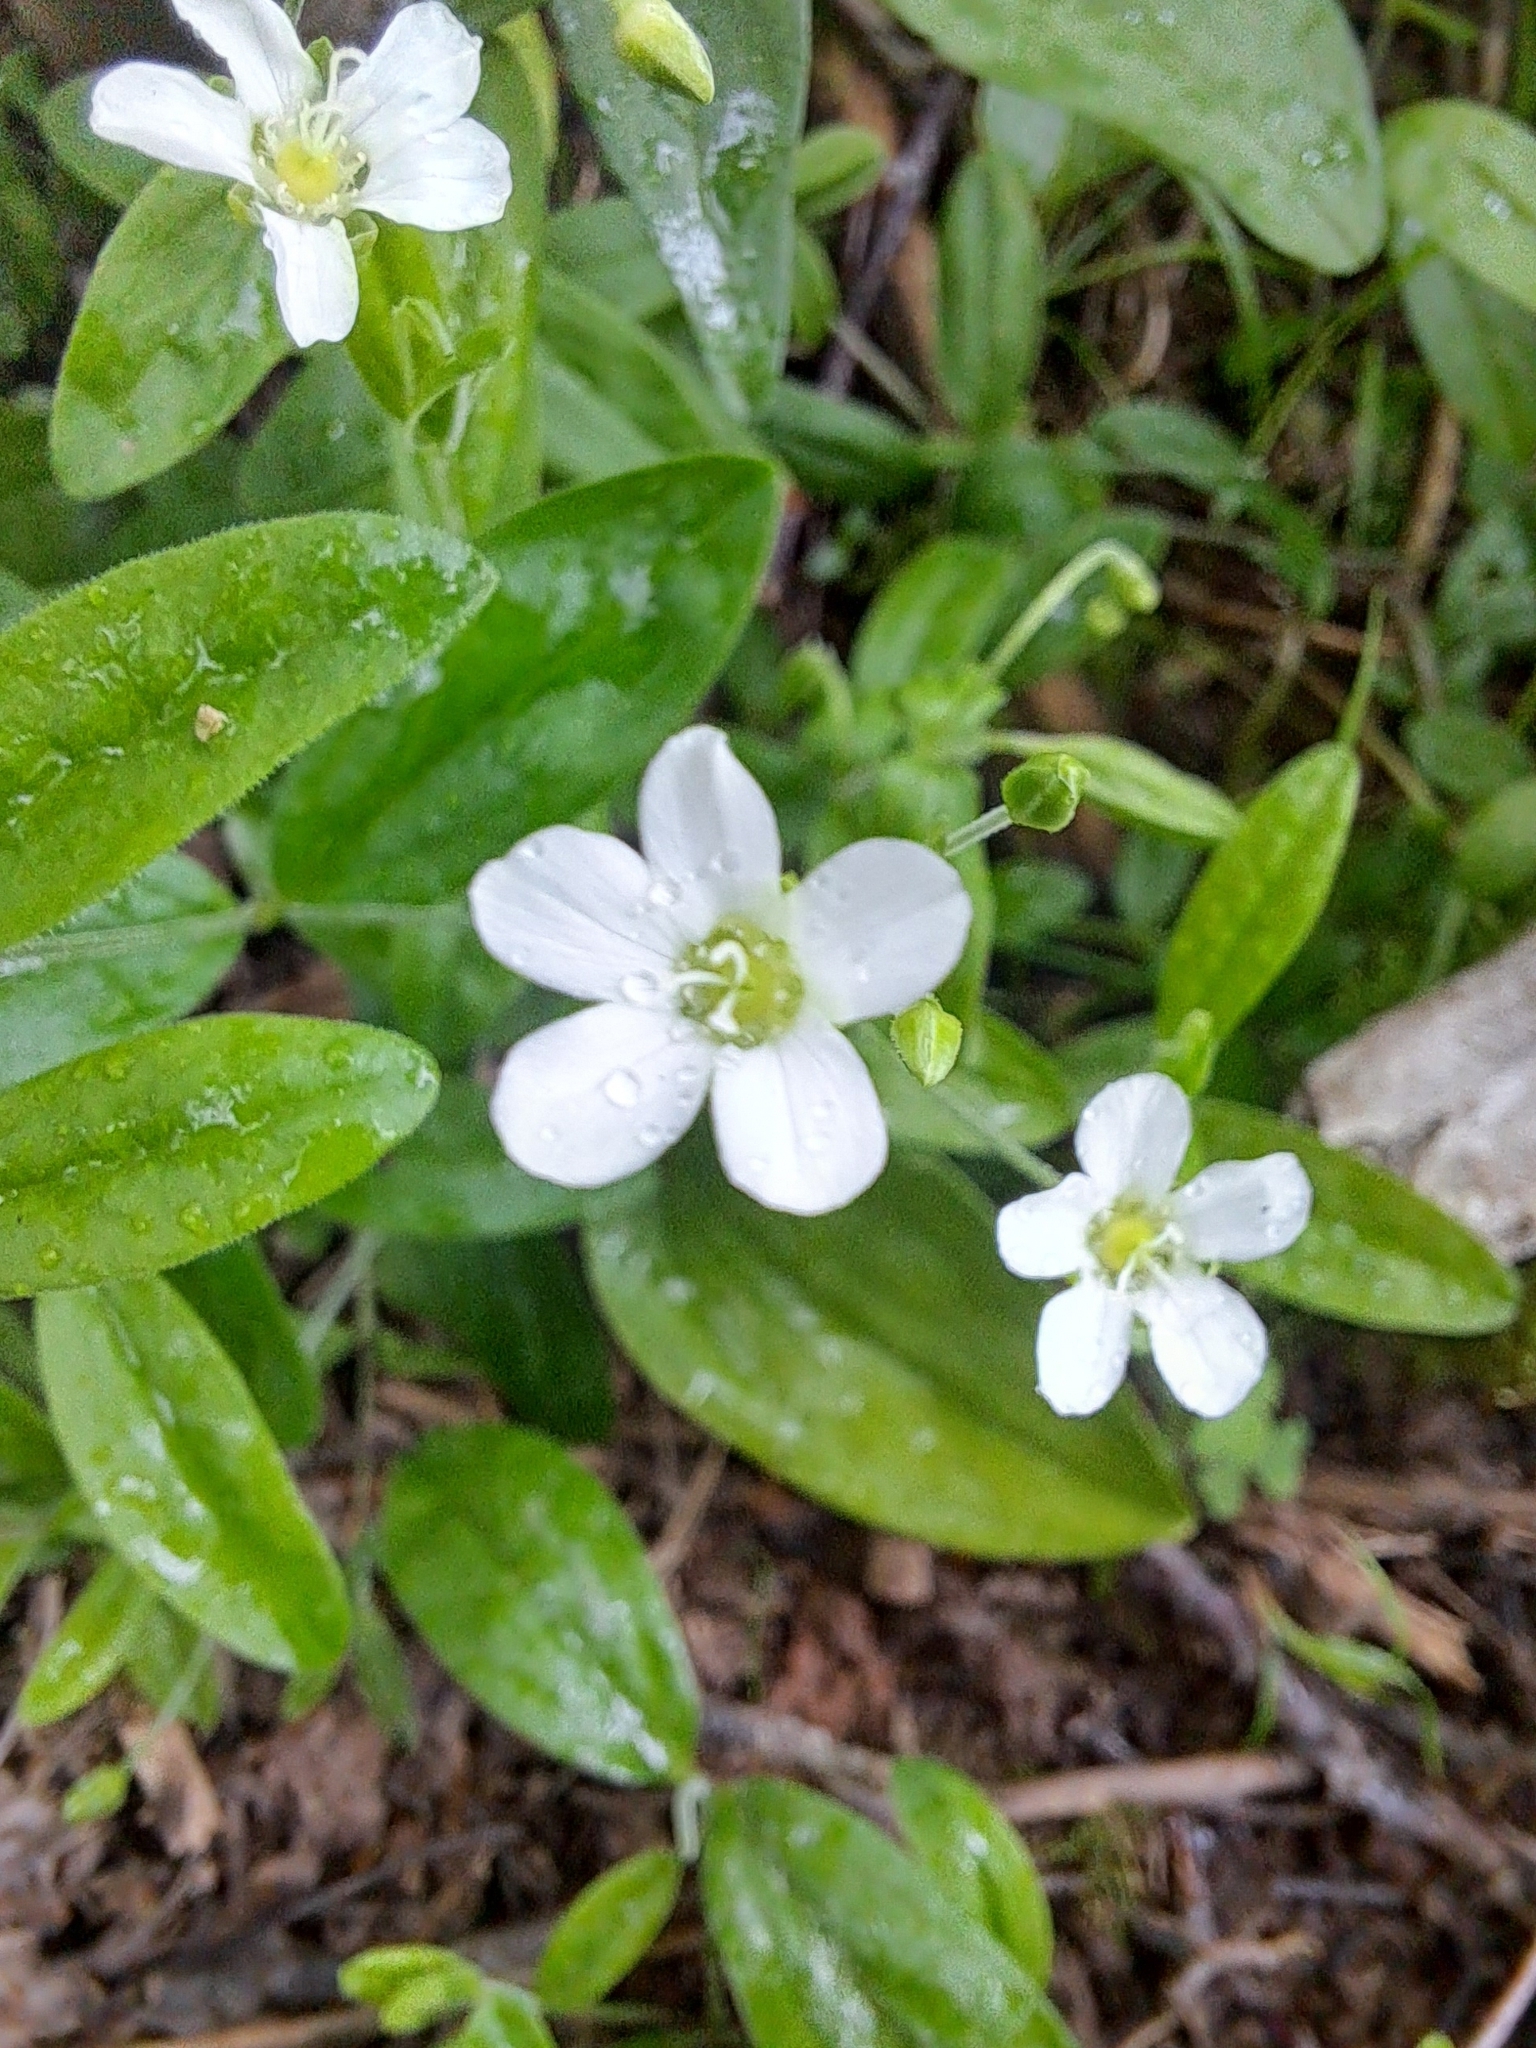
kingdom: Plantae
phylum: Tracheophyta
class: Magnoliopsida
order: Caryophyllales
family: Caryophyllaceae
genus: Moehringia
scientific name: Moehringia lateriflora
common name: Blunt-leaved sandwort
